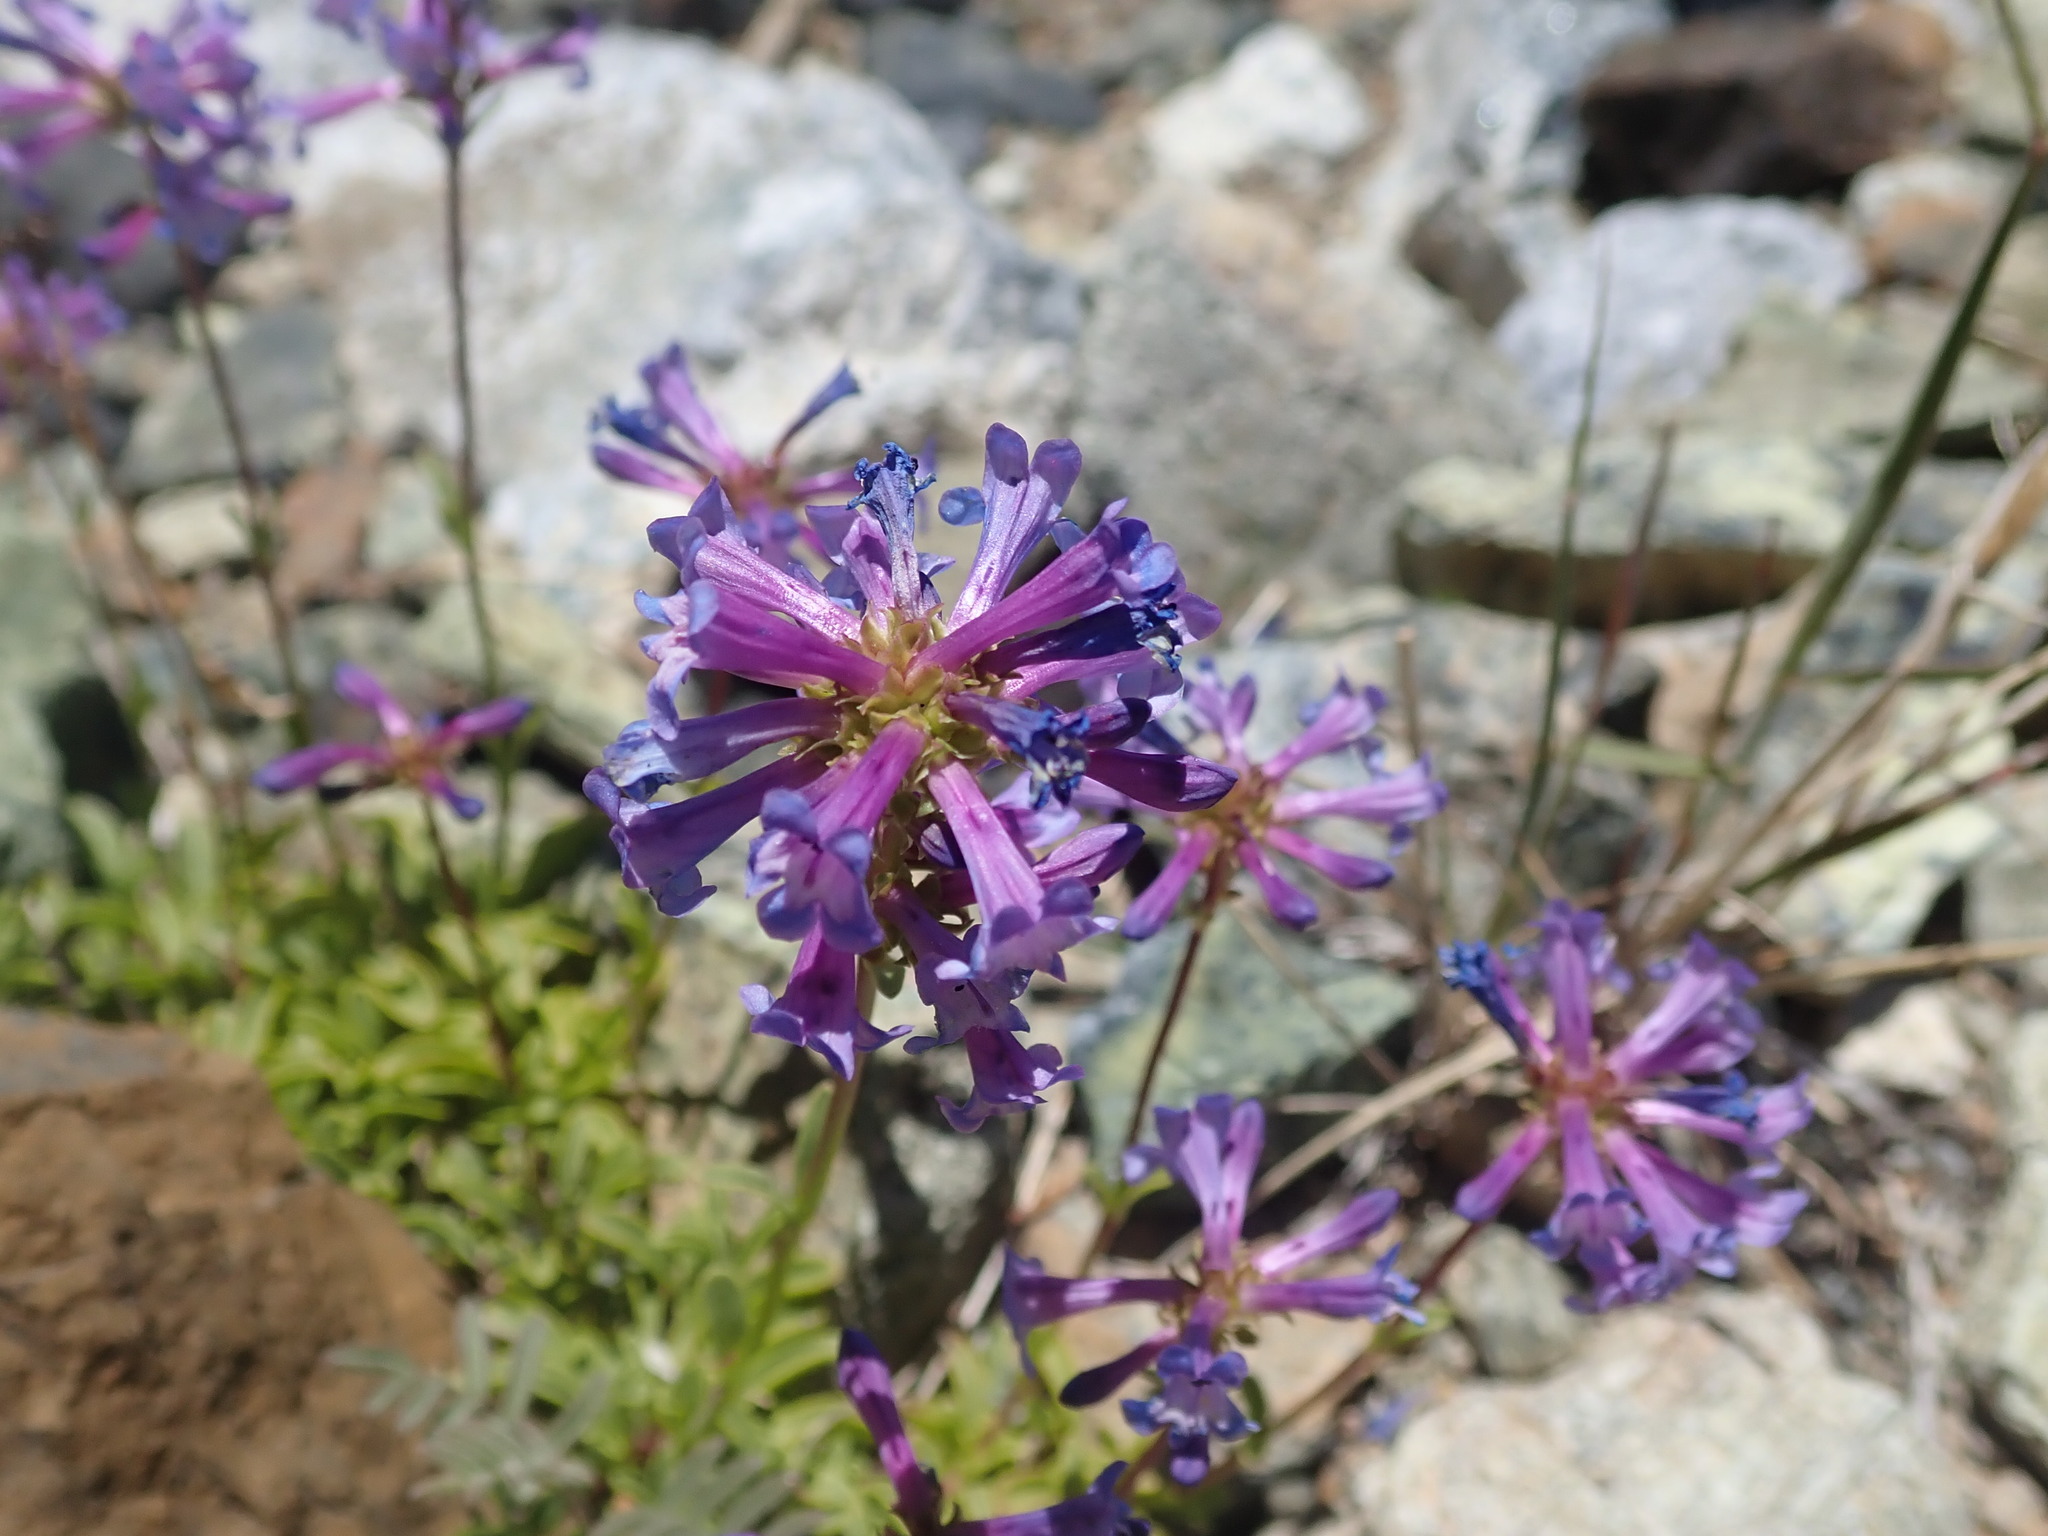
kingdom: Plantae
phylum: Tracheophyta
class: Magnoliopsida
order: Lamiales
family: Plantaginaceae
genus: Penstemon
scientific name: Penstemon procerus
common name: Small-flower penstemon
